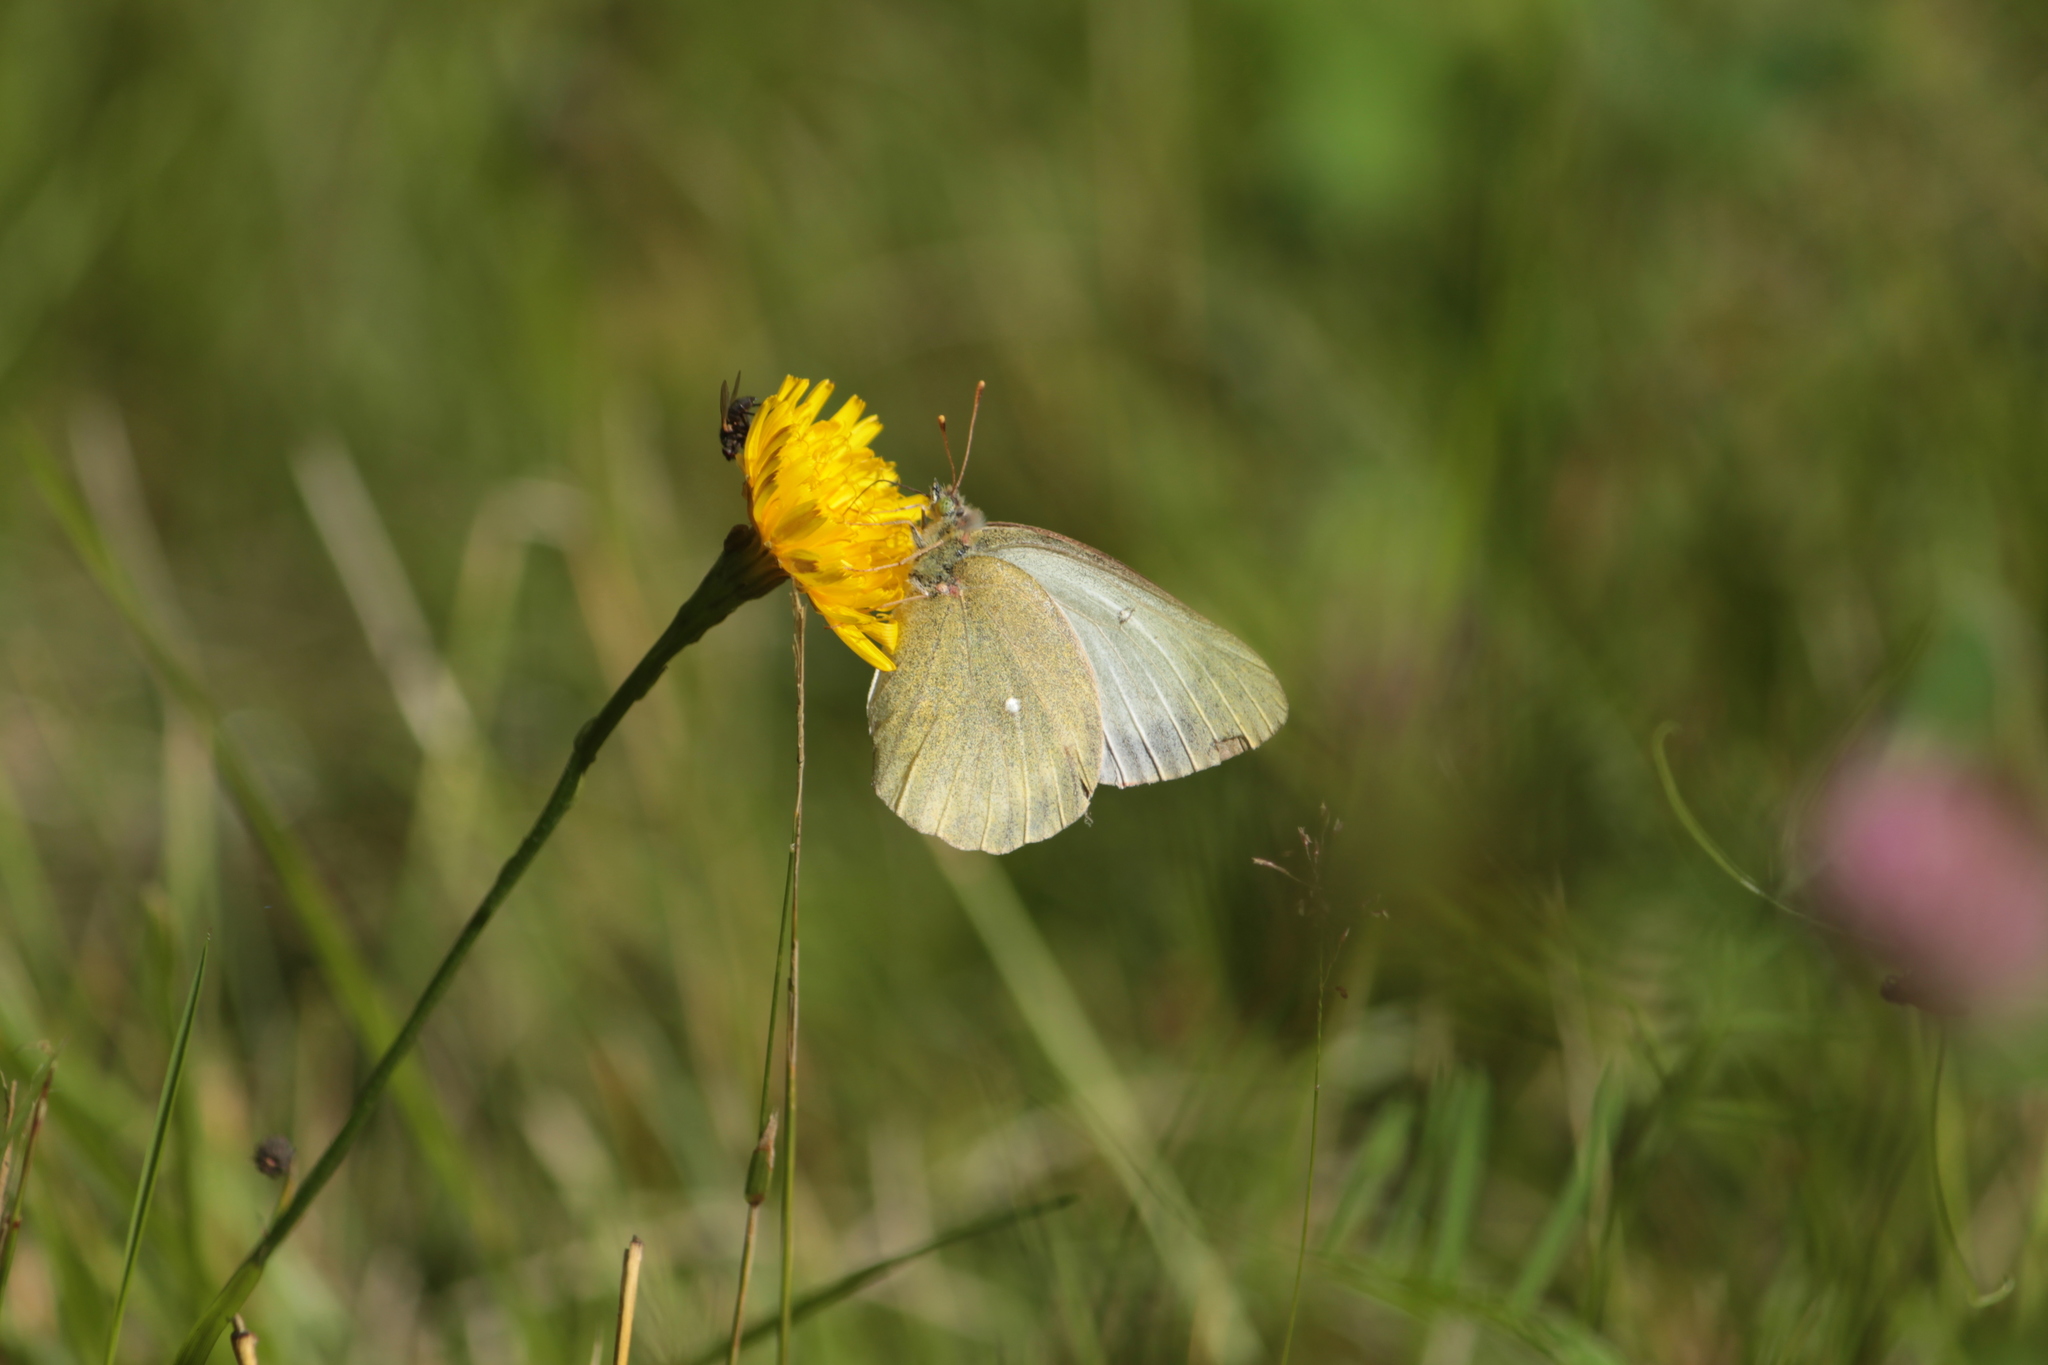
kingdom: Animalia
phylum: Arthropoda
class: Insecta
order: Lepidoptera
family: Pieridae
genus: Colias
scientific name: Colias palaeno
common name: Moorland clouded yellow
